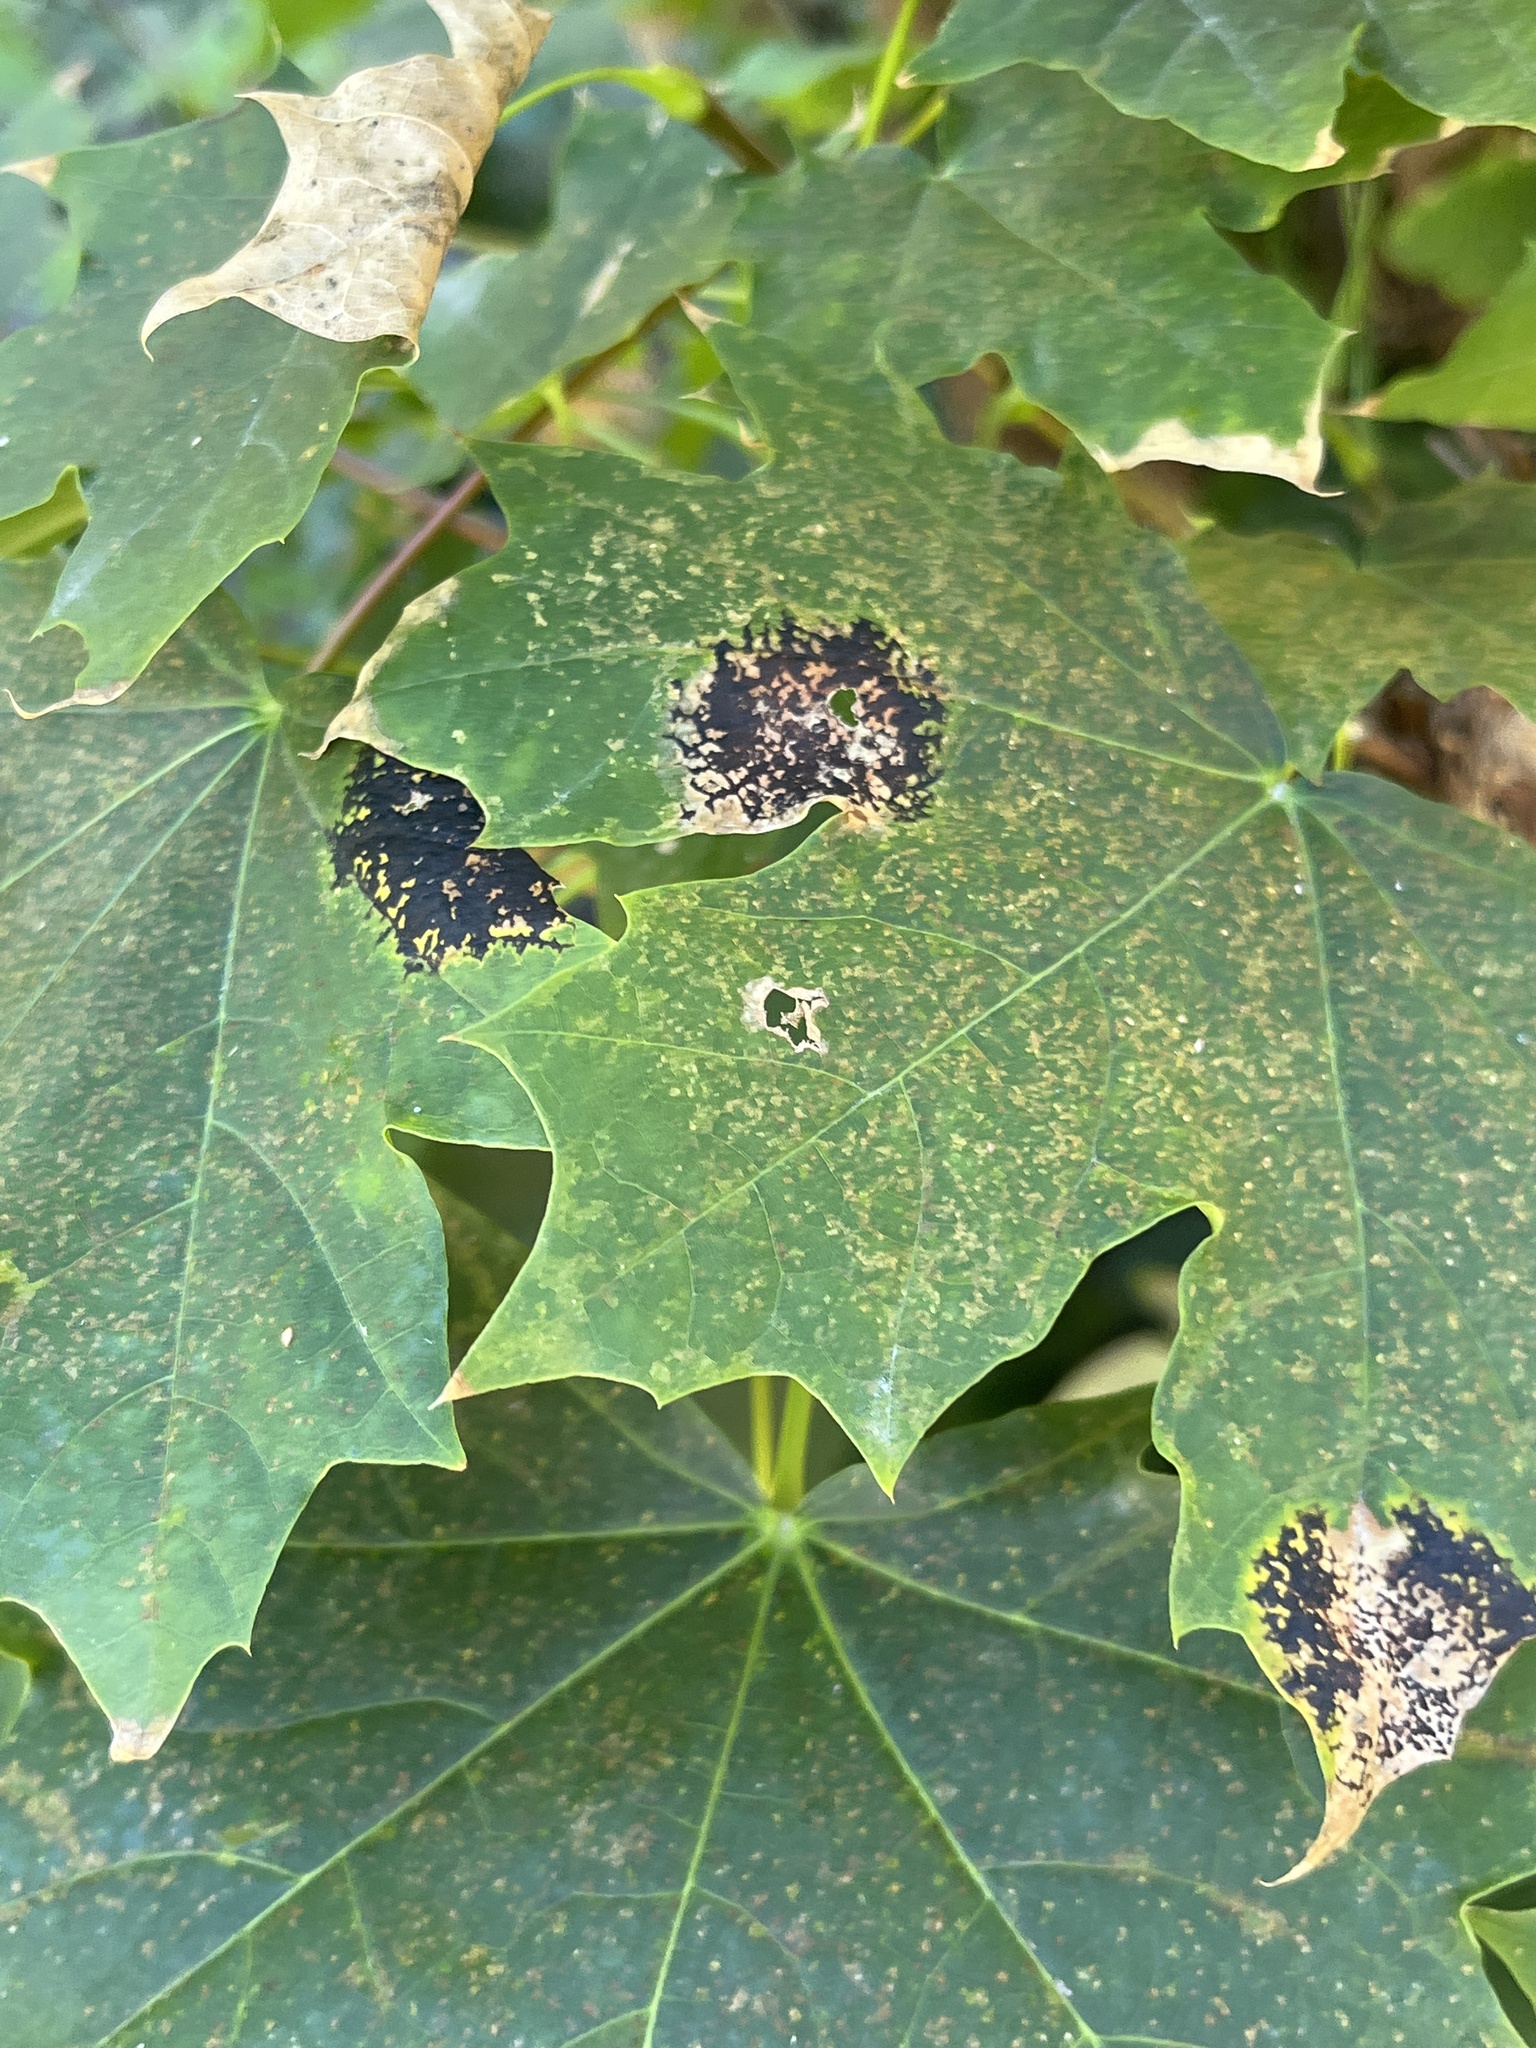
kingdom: Fungi
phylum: Ascomycota
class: Leotiomycetes
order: Rhytismatales
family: Rhytismataceae
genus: Rhytisma
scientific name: Rhytisma acerinum
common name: European tar spot
